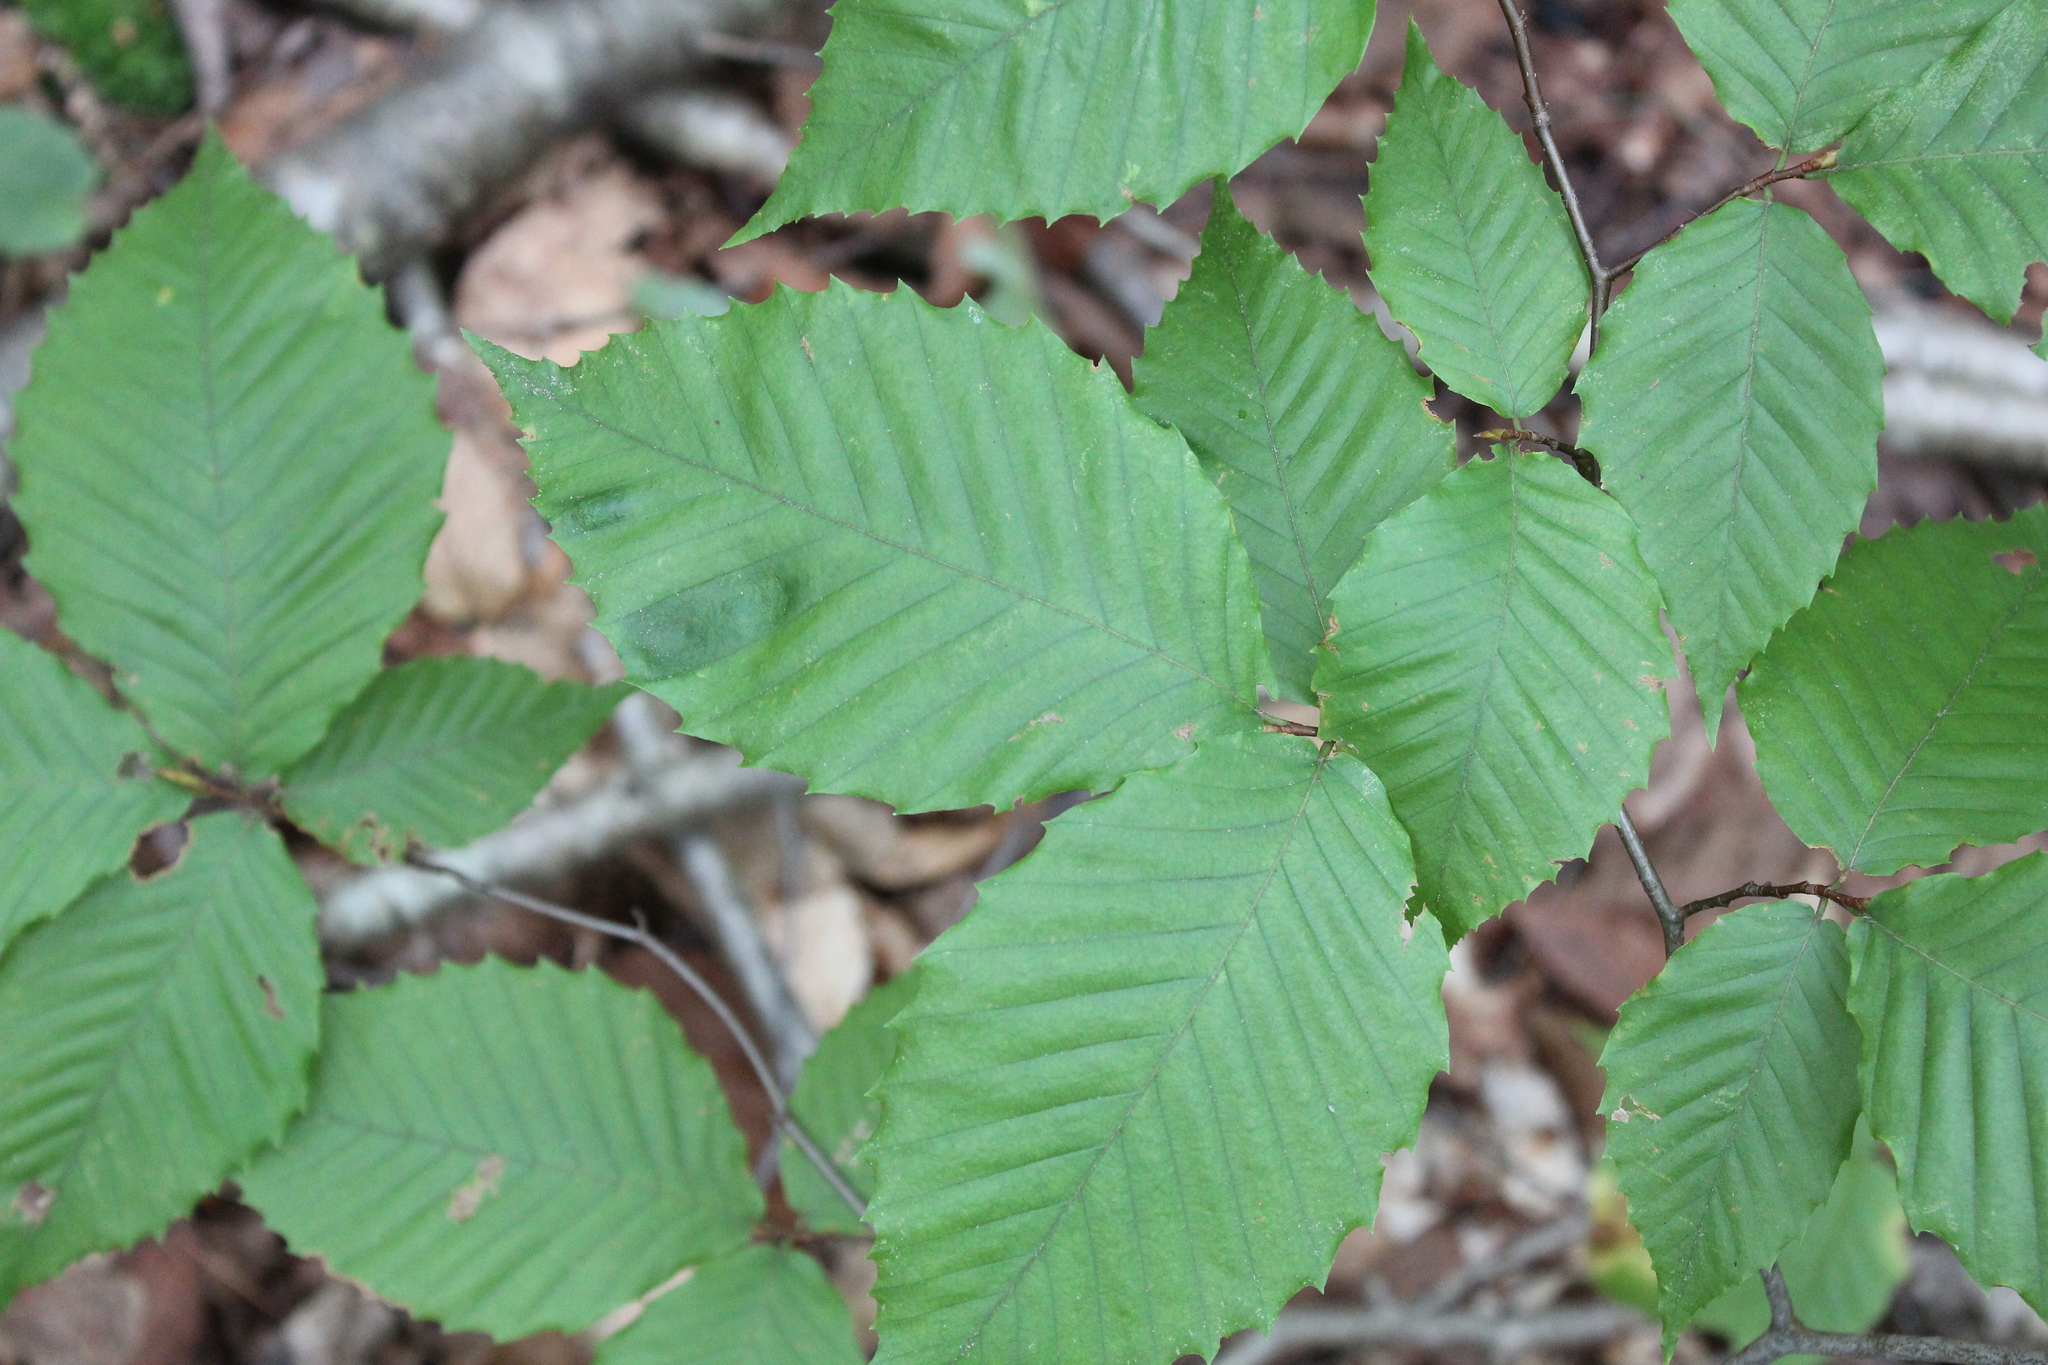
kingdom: Animalia
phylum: Nematoda
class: Chromadorea
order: Rhabditida
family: Anguinidae
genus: Litylenchus
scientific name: Litylenchus crenatae
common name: Beech leaf disease
